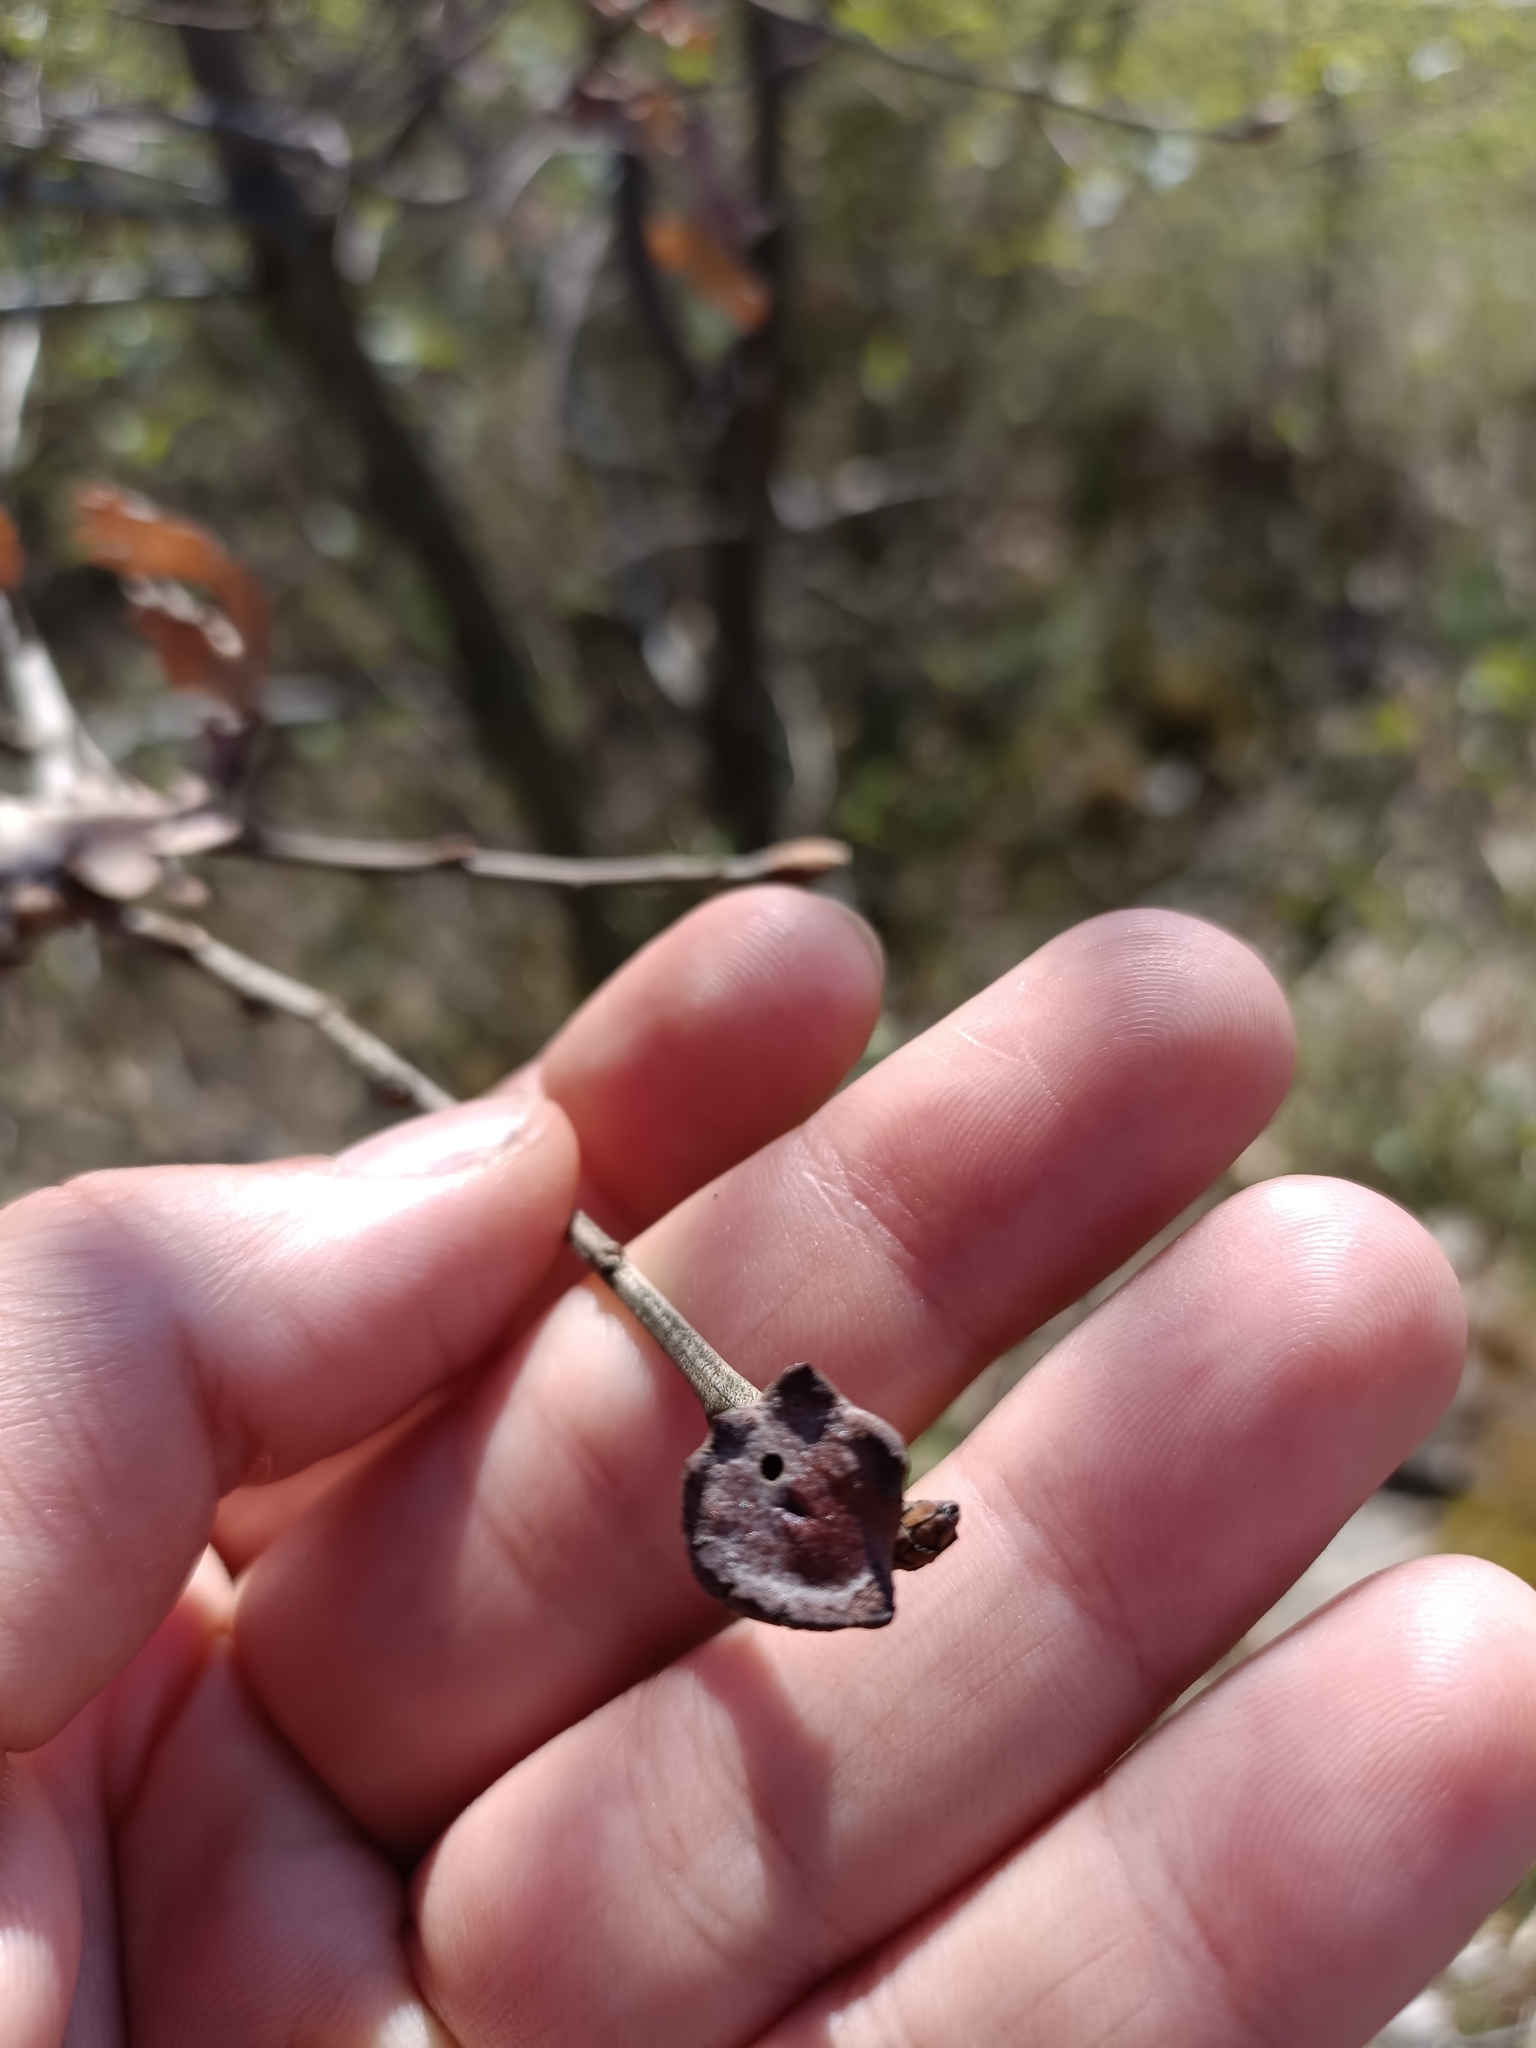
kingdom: Animalia
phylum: Arthropoda
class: Insecta
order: Hymenoptera
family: Cynipidae
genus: Andricus
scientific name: Andricus polycerus
